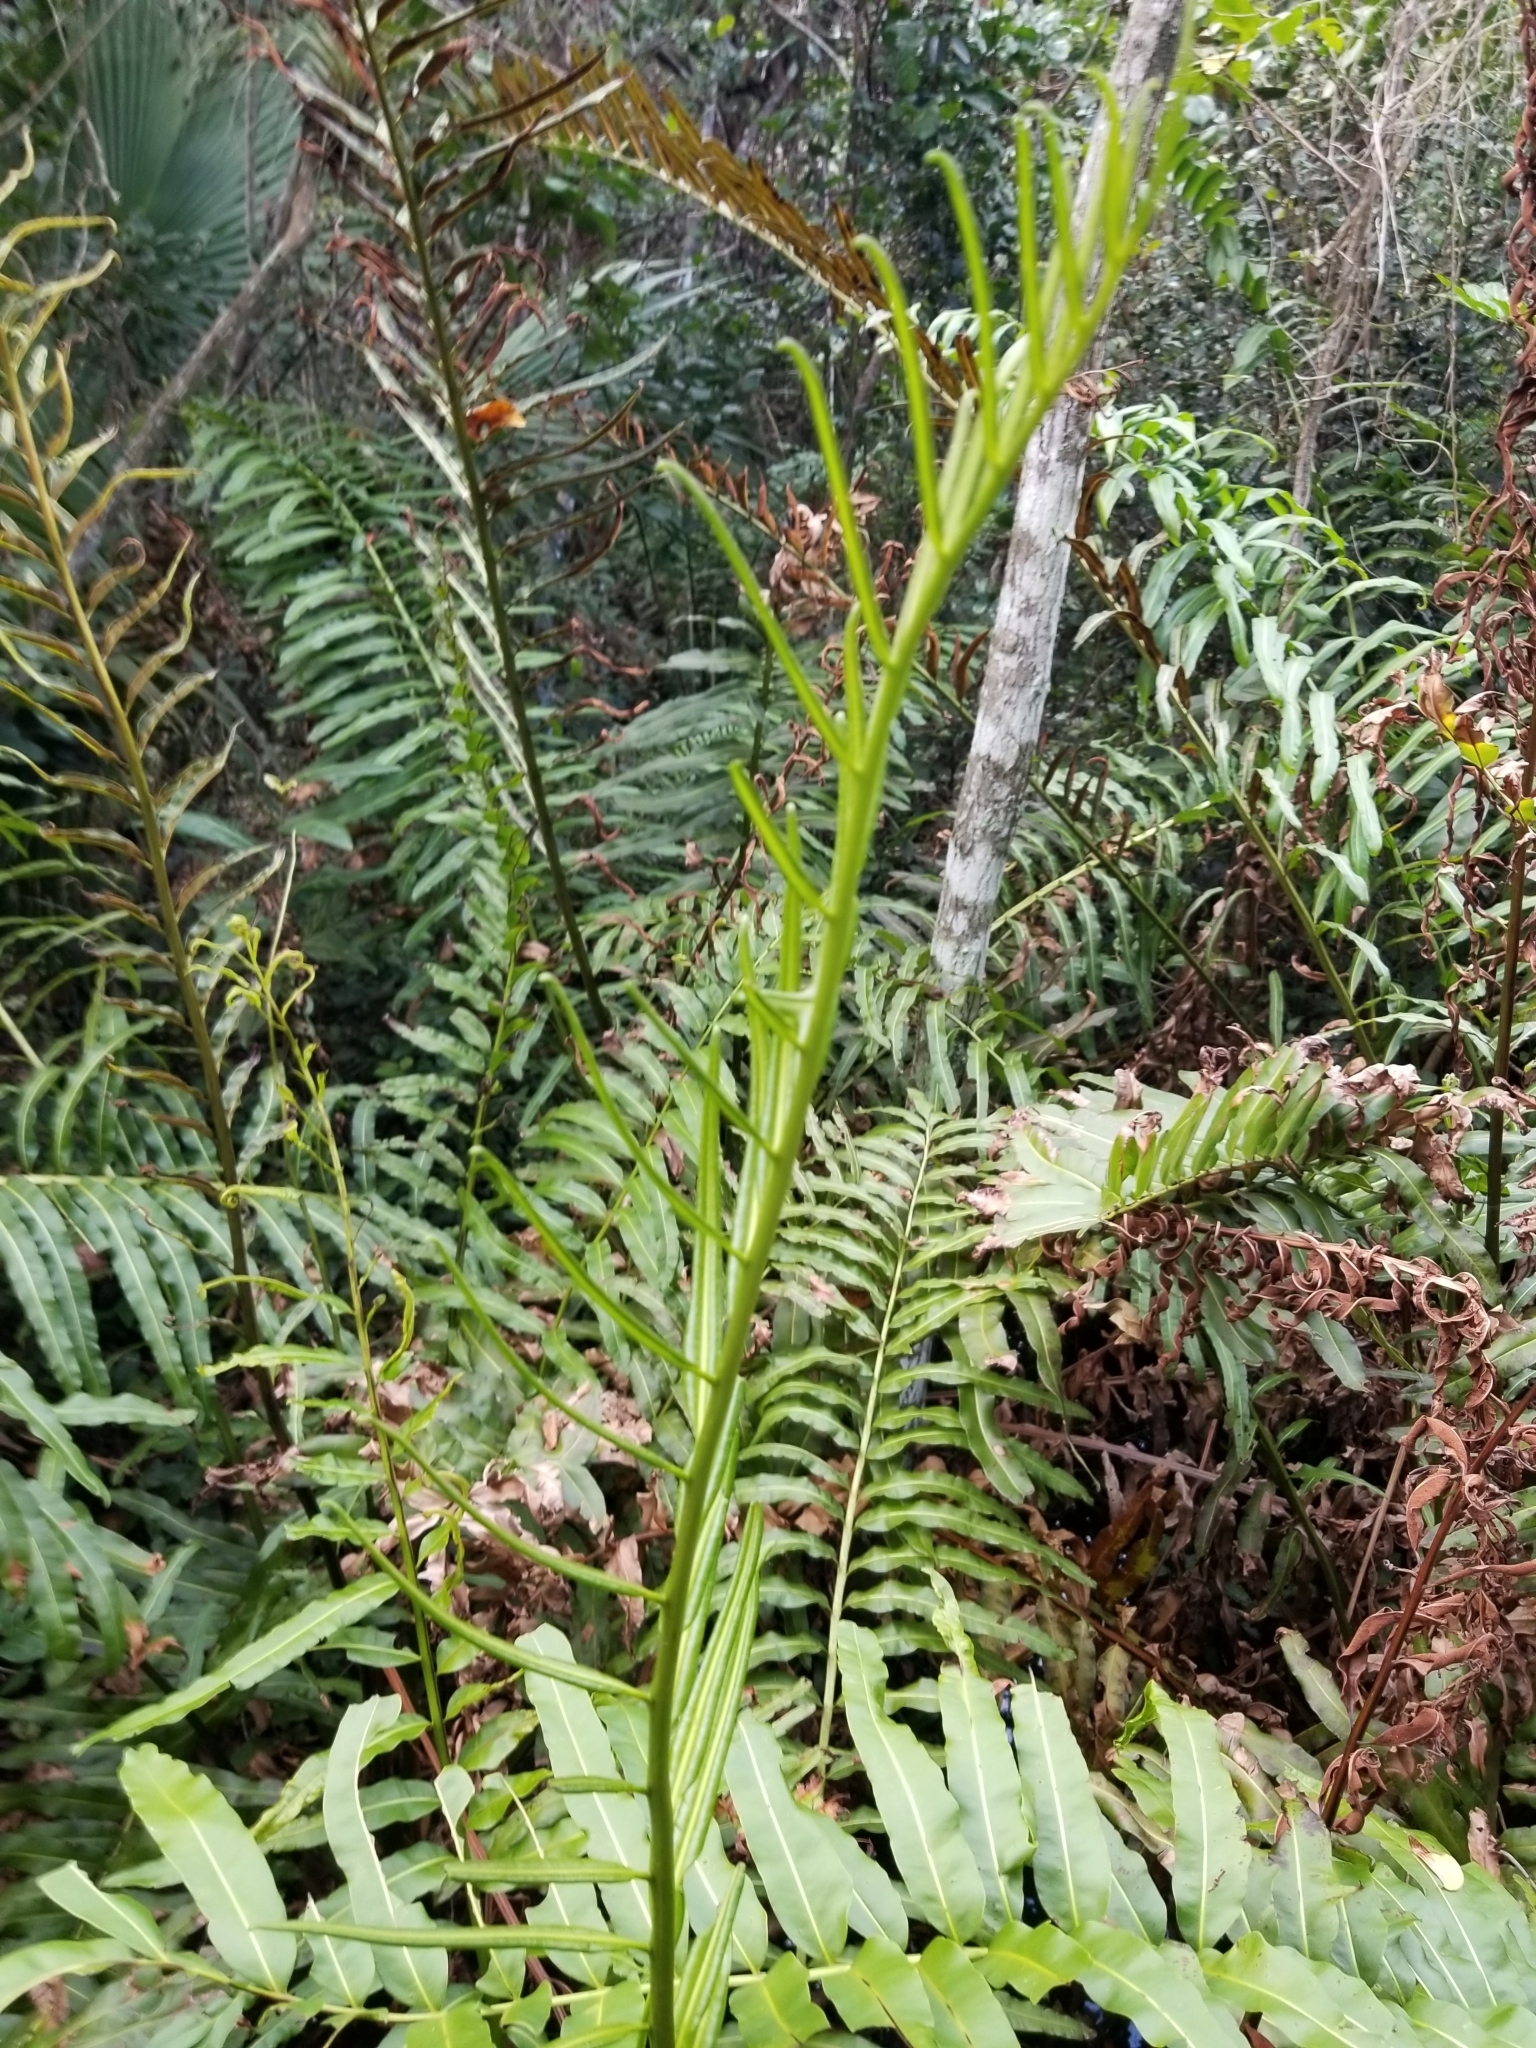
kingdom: Plantae
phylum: Tracheophyta
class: Polypodiopsida
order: Polypodiales
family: Pteridaceae
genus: Acrostichum
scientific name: Acrostichum danaeifolium
